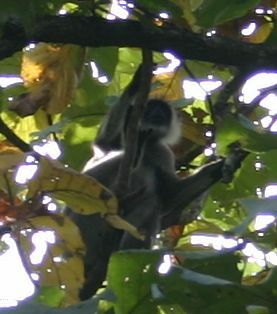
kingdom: Animalia
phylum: Chordata
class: Mammalia
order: Primates
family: Cercopithecidae
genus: Semnopithecus
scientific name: Semnopithecus priam
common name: Tufted gray langur
